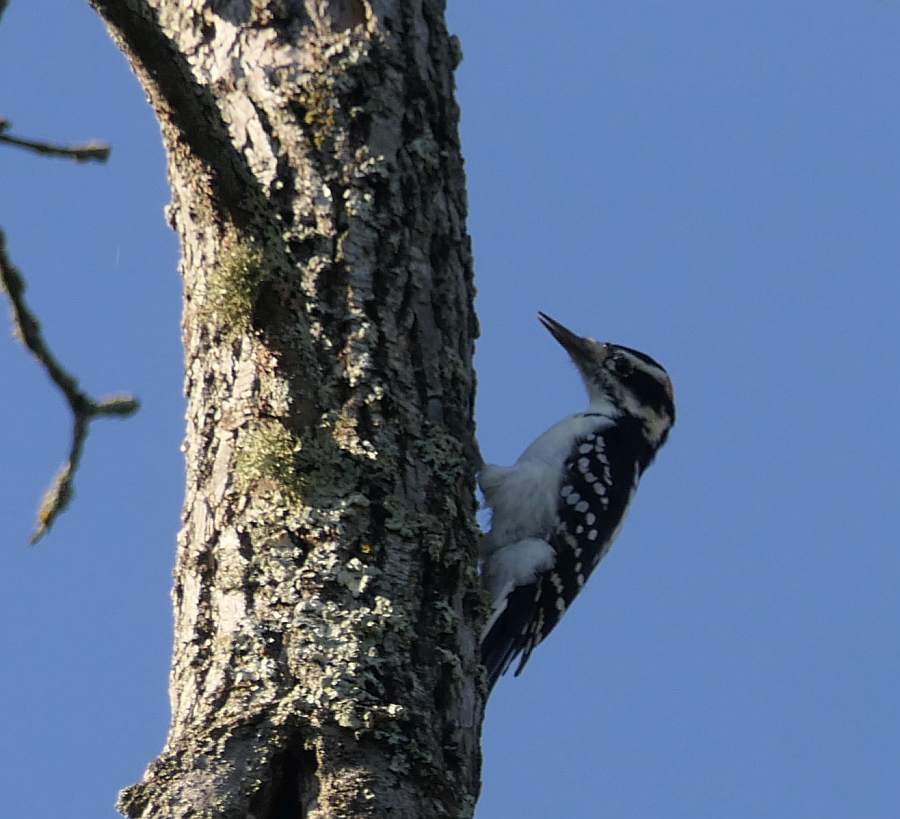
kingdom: Animalia
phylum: Chordata
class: Aves
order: Piciformes
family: Picidae
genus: Leuconotopicus
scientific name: Leuconotopicus villosus
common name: Hairy woodpecker
